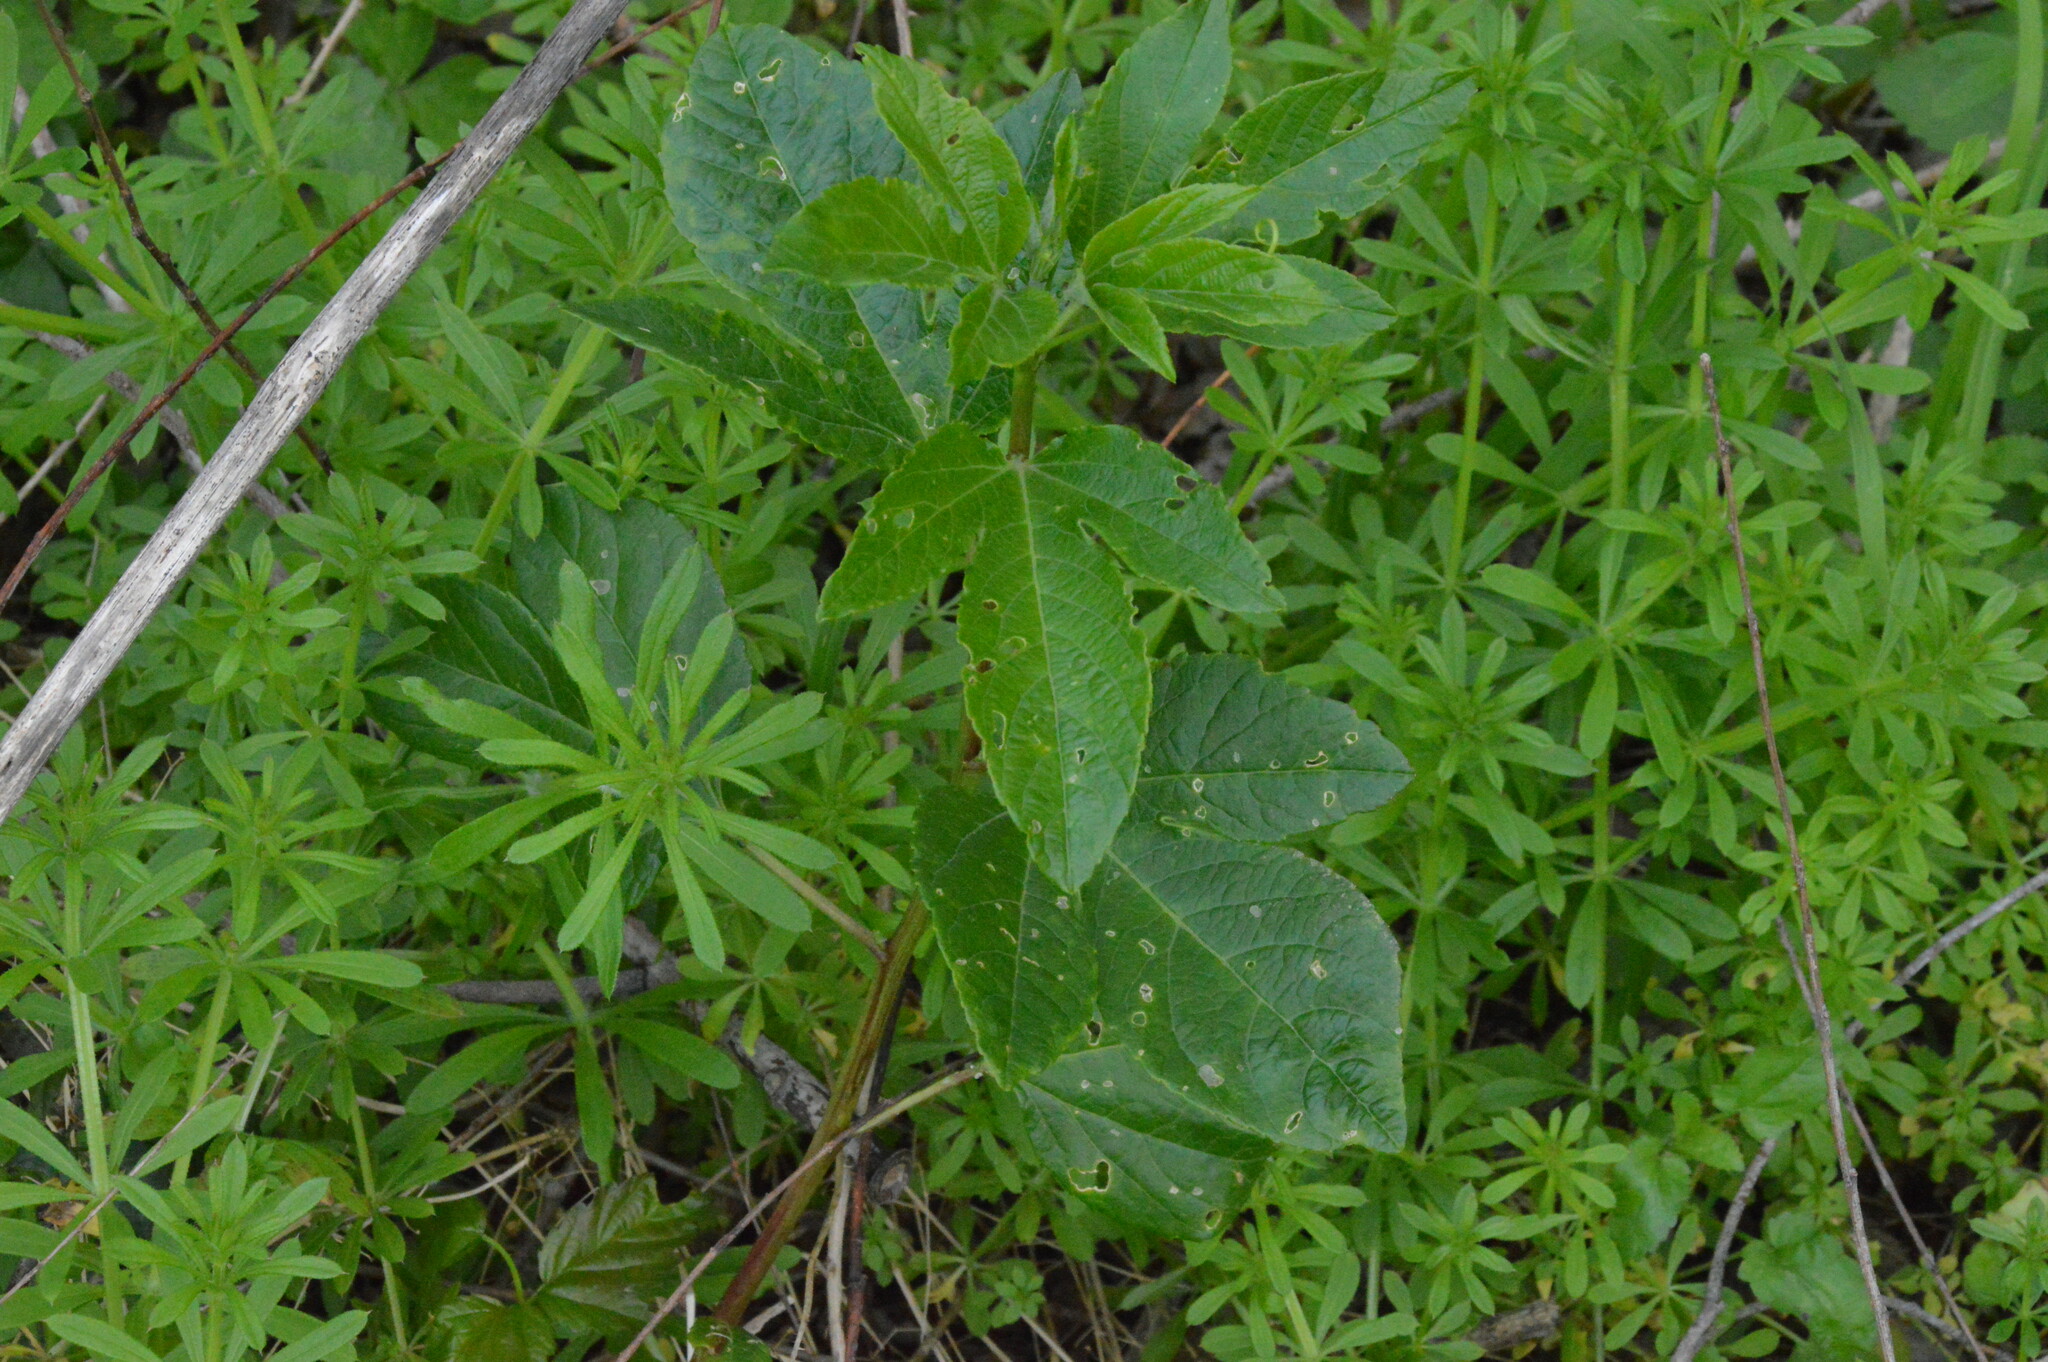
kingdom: Plantae
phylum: Tracheophyta
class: Magnoliopsida
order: Malpighiales
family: Passifloraceae
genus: Passiflora
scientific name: Passiflora incarnata
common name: Apricot-vine
